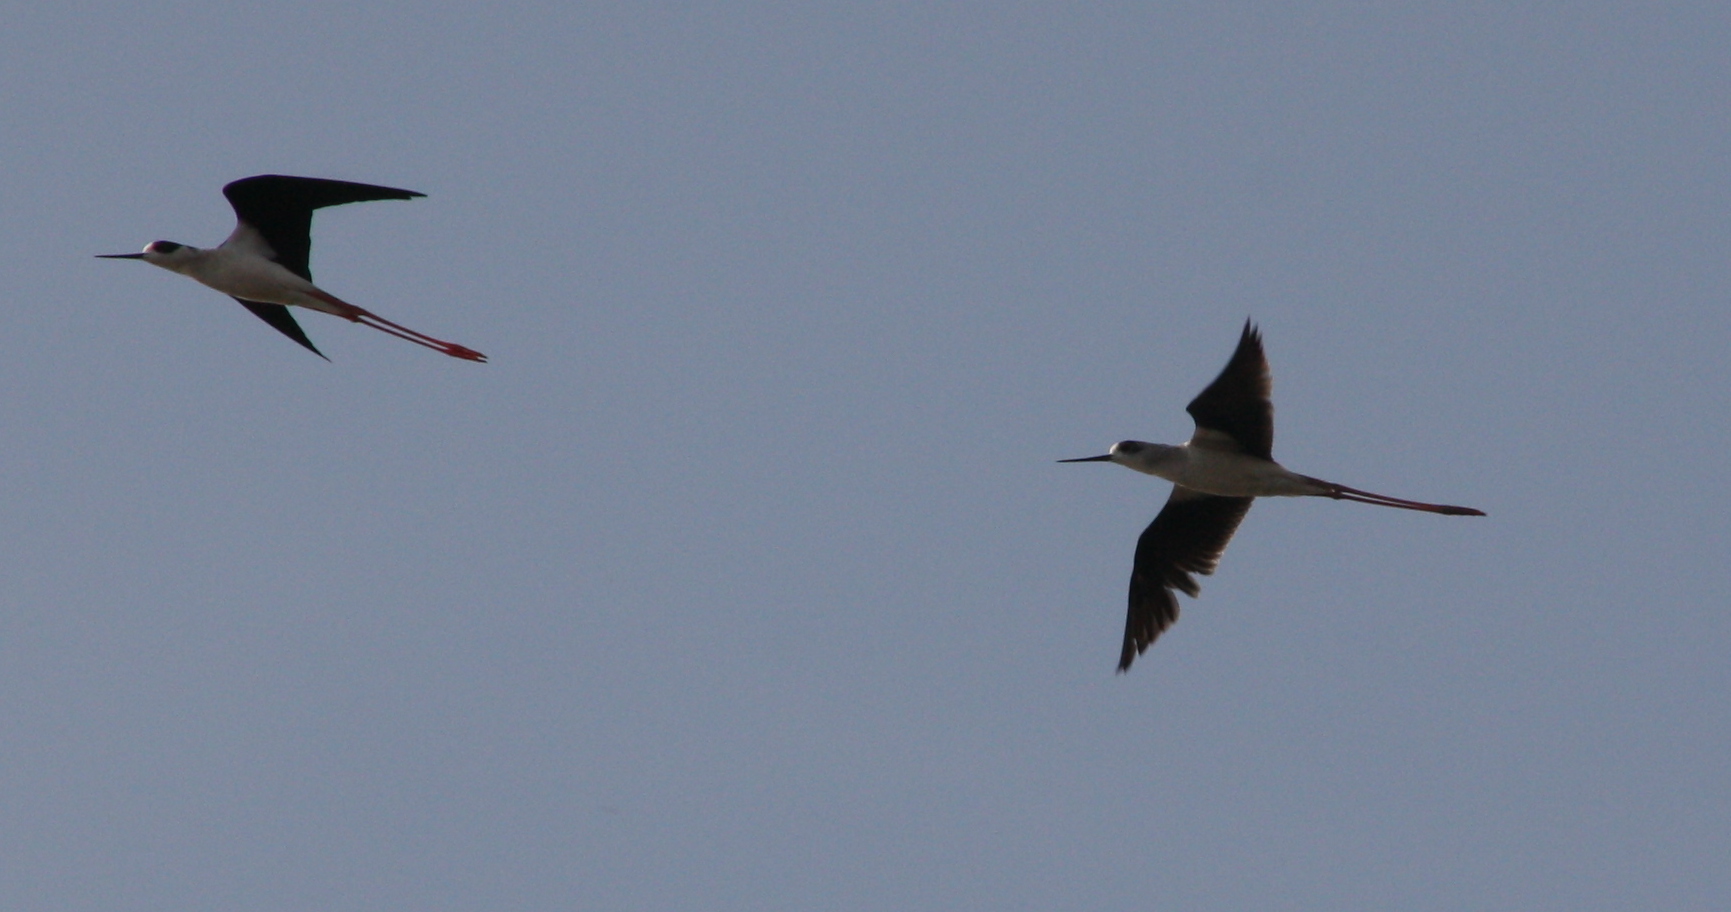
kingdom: Animalia
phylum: Chordata
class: Aves
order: Charadriiformes
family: Recurvirostridae
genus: Himantopus
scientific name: Himantopus himantopus
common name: Black-winged stilt
